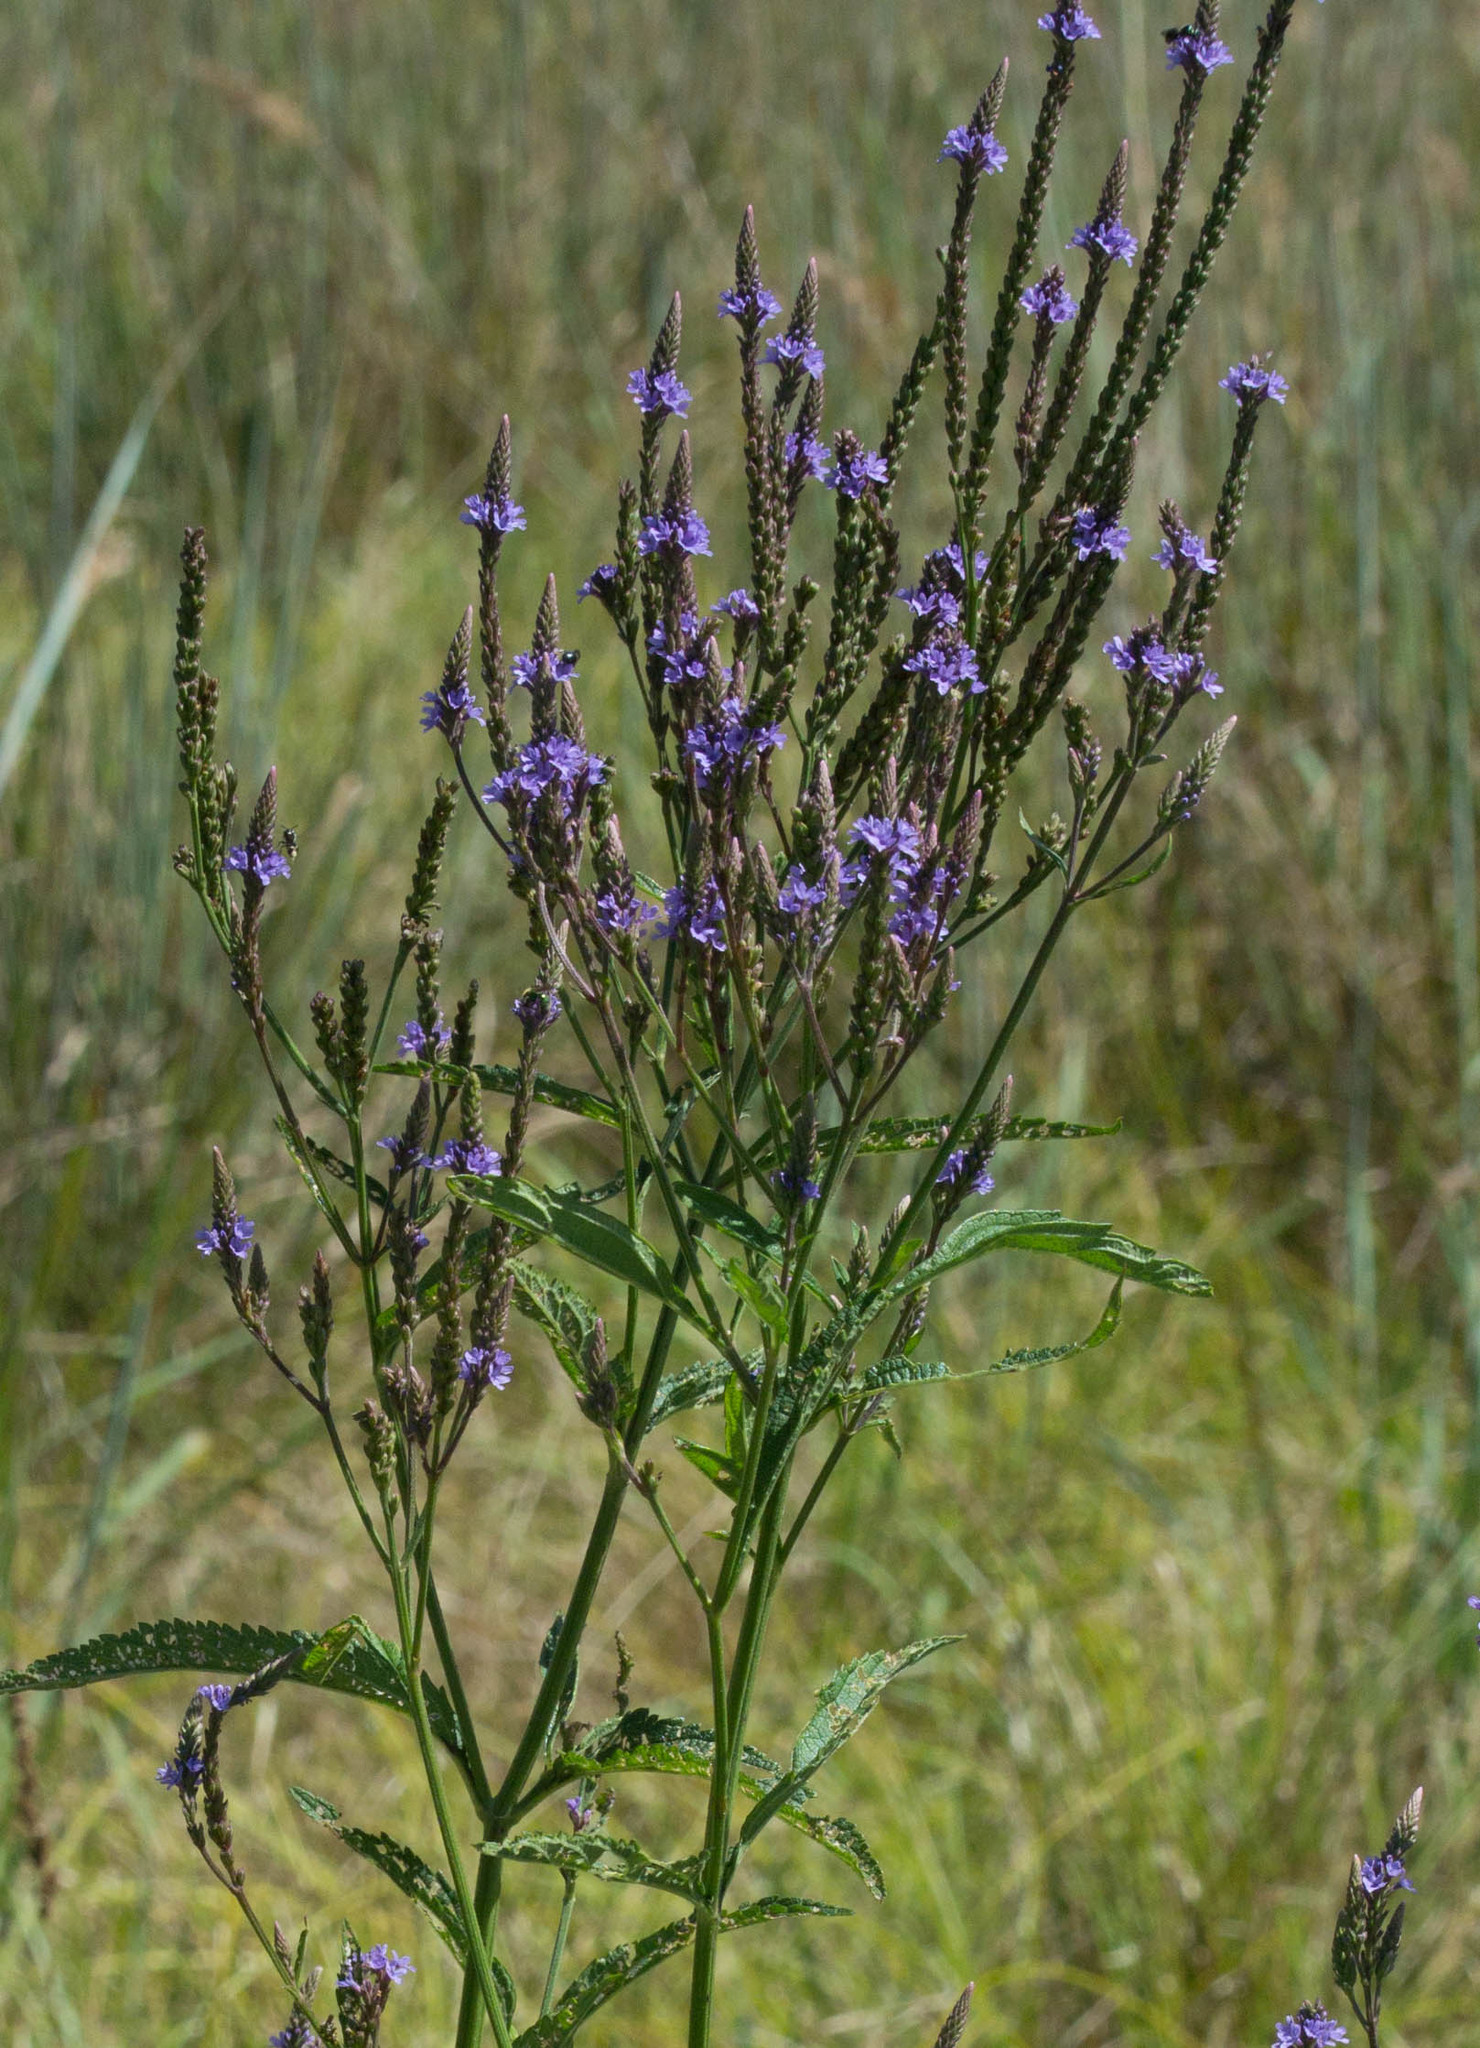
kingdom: Plantae
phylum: Tracheophyta
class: Magnoliopsida
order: Lamiales
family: Verbenaceae
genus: Verbena
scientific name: Verbena hastata
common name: American blue vervain
